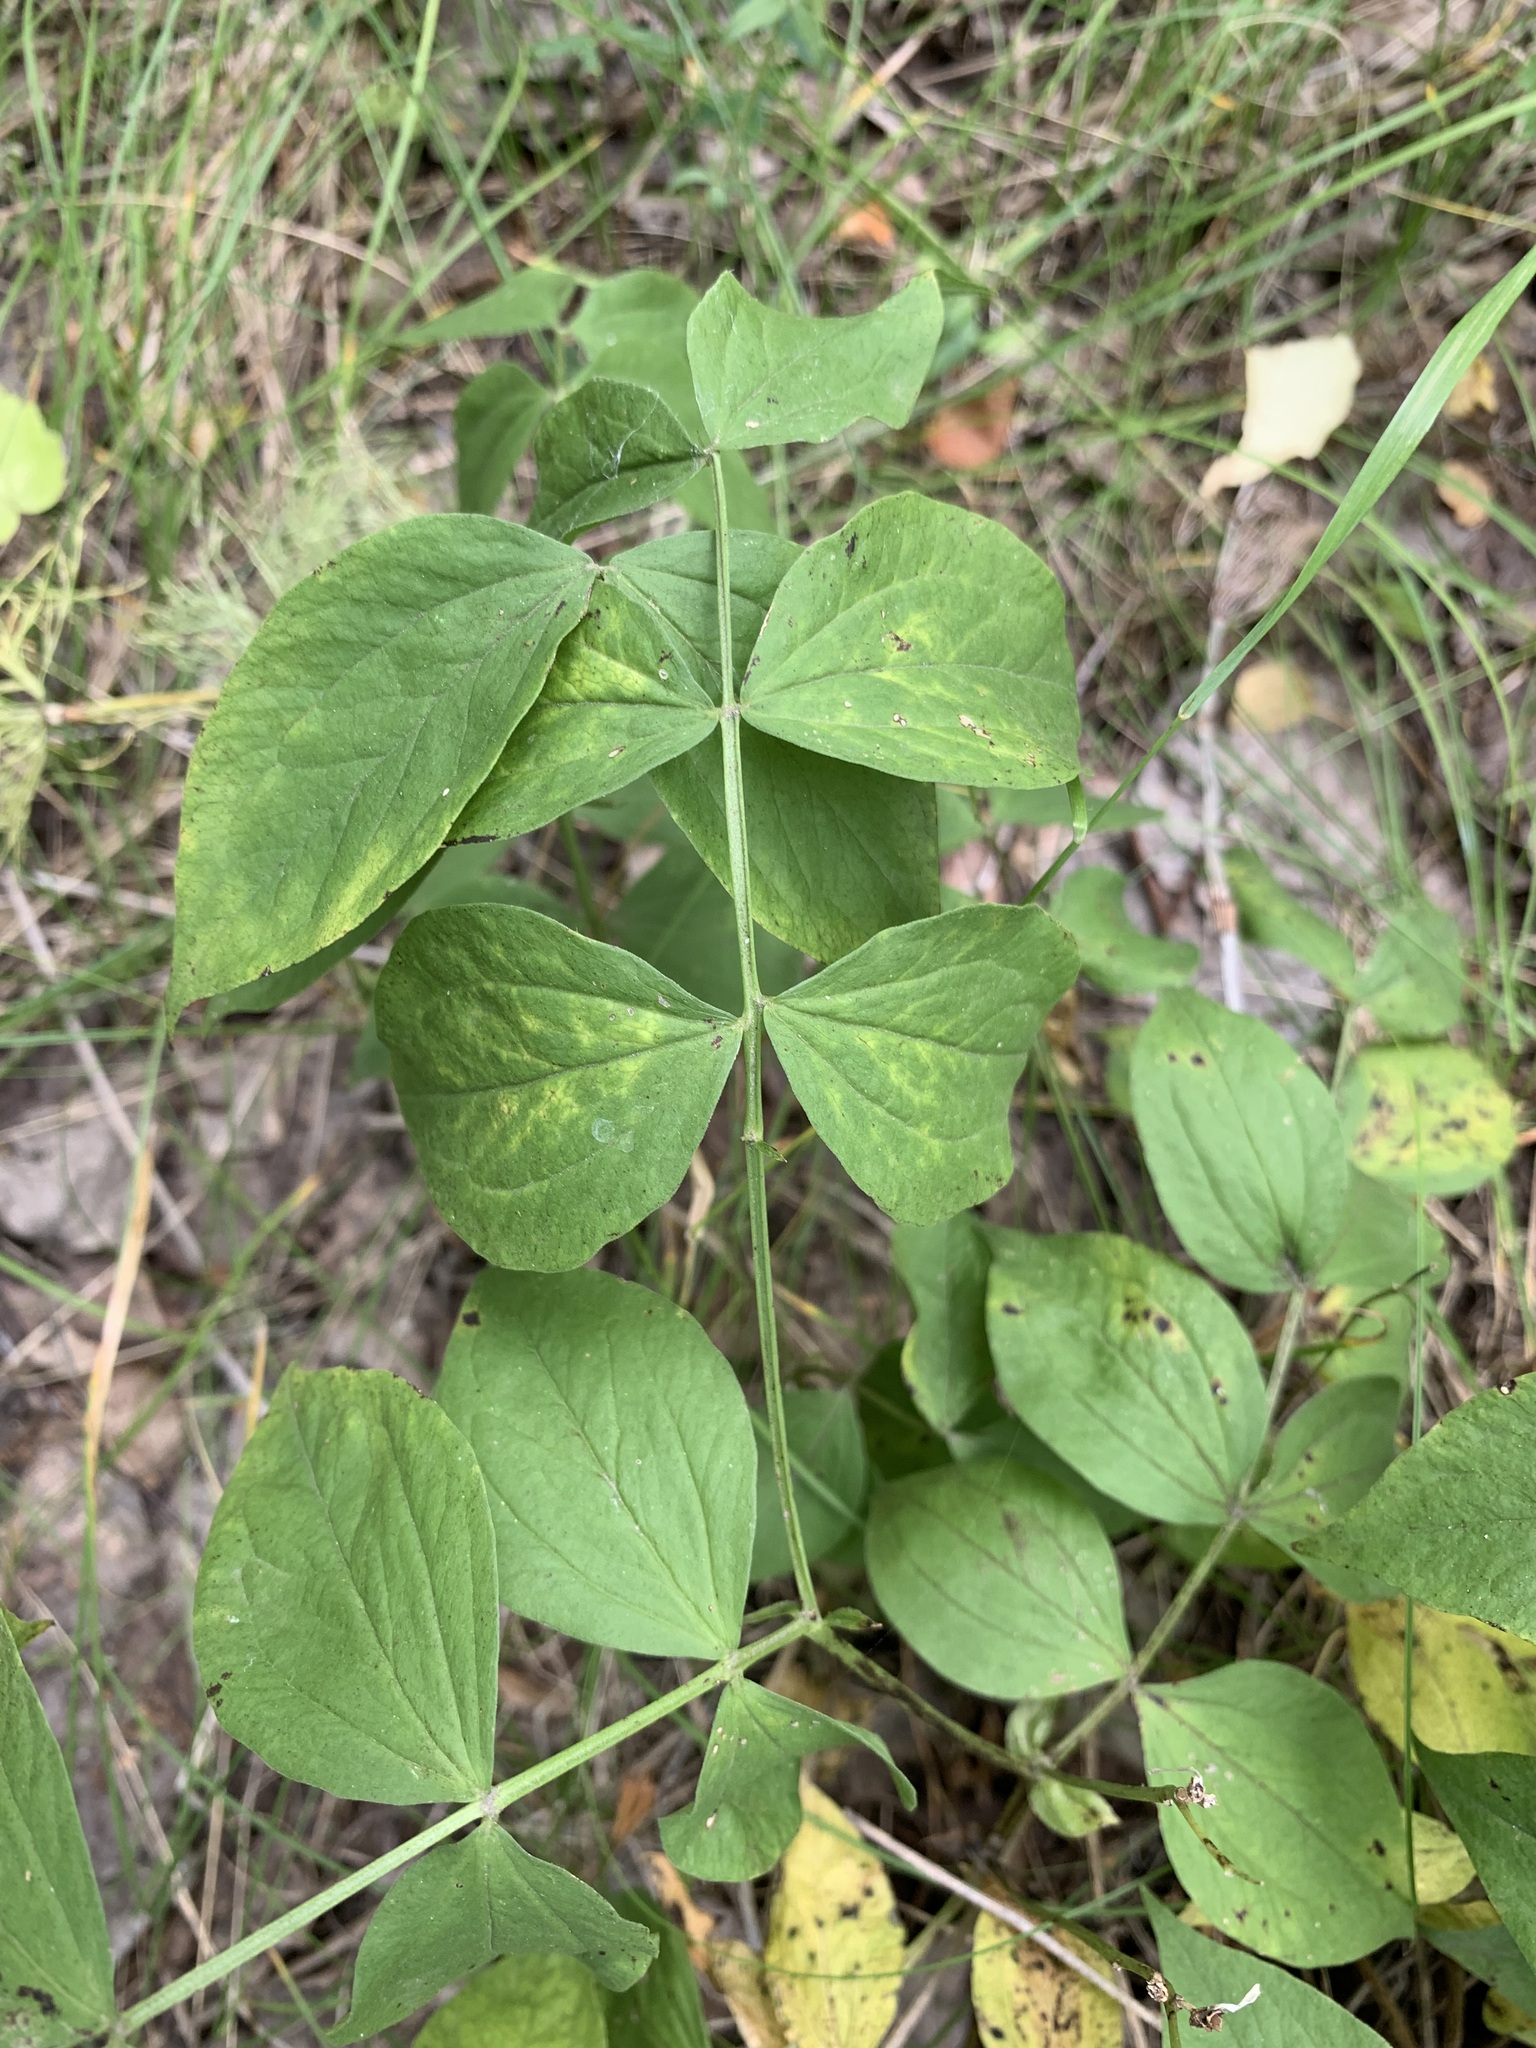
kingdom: Plantae
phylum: Tracheophyta
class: Magnoliopsida
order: Fabales
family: Fabaceae
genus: Lathyrus
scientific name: Lathyrus vernus
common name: Spring pea
